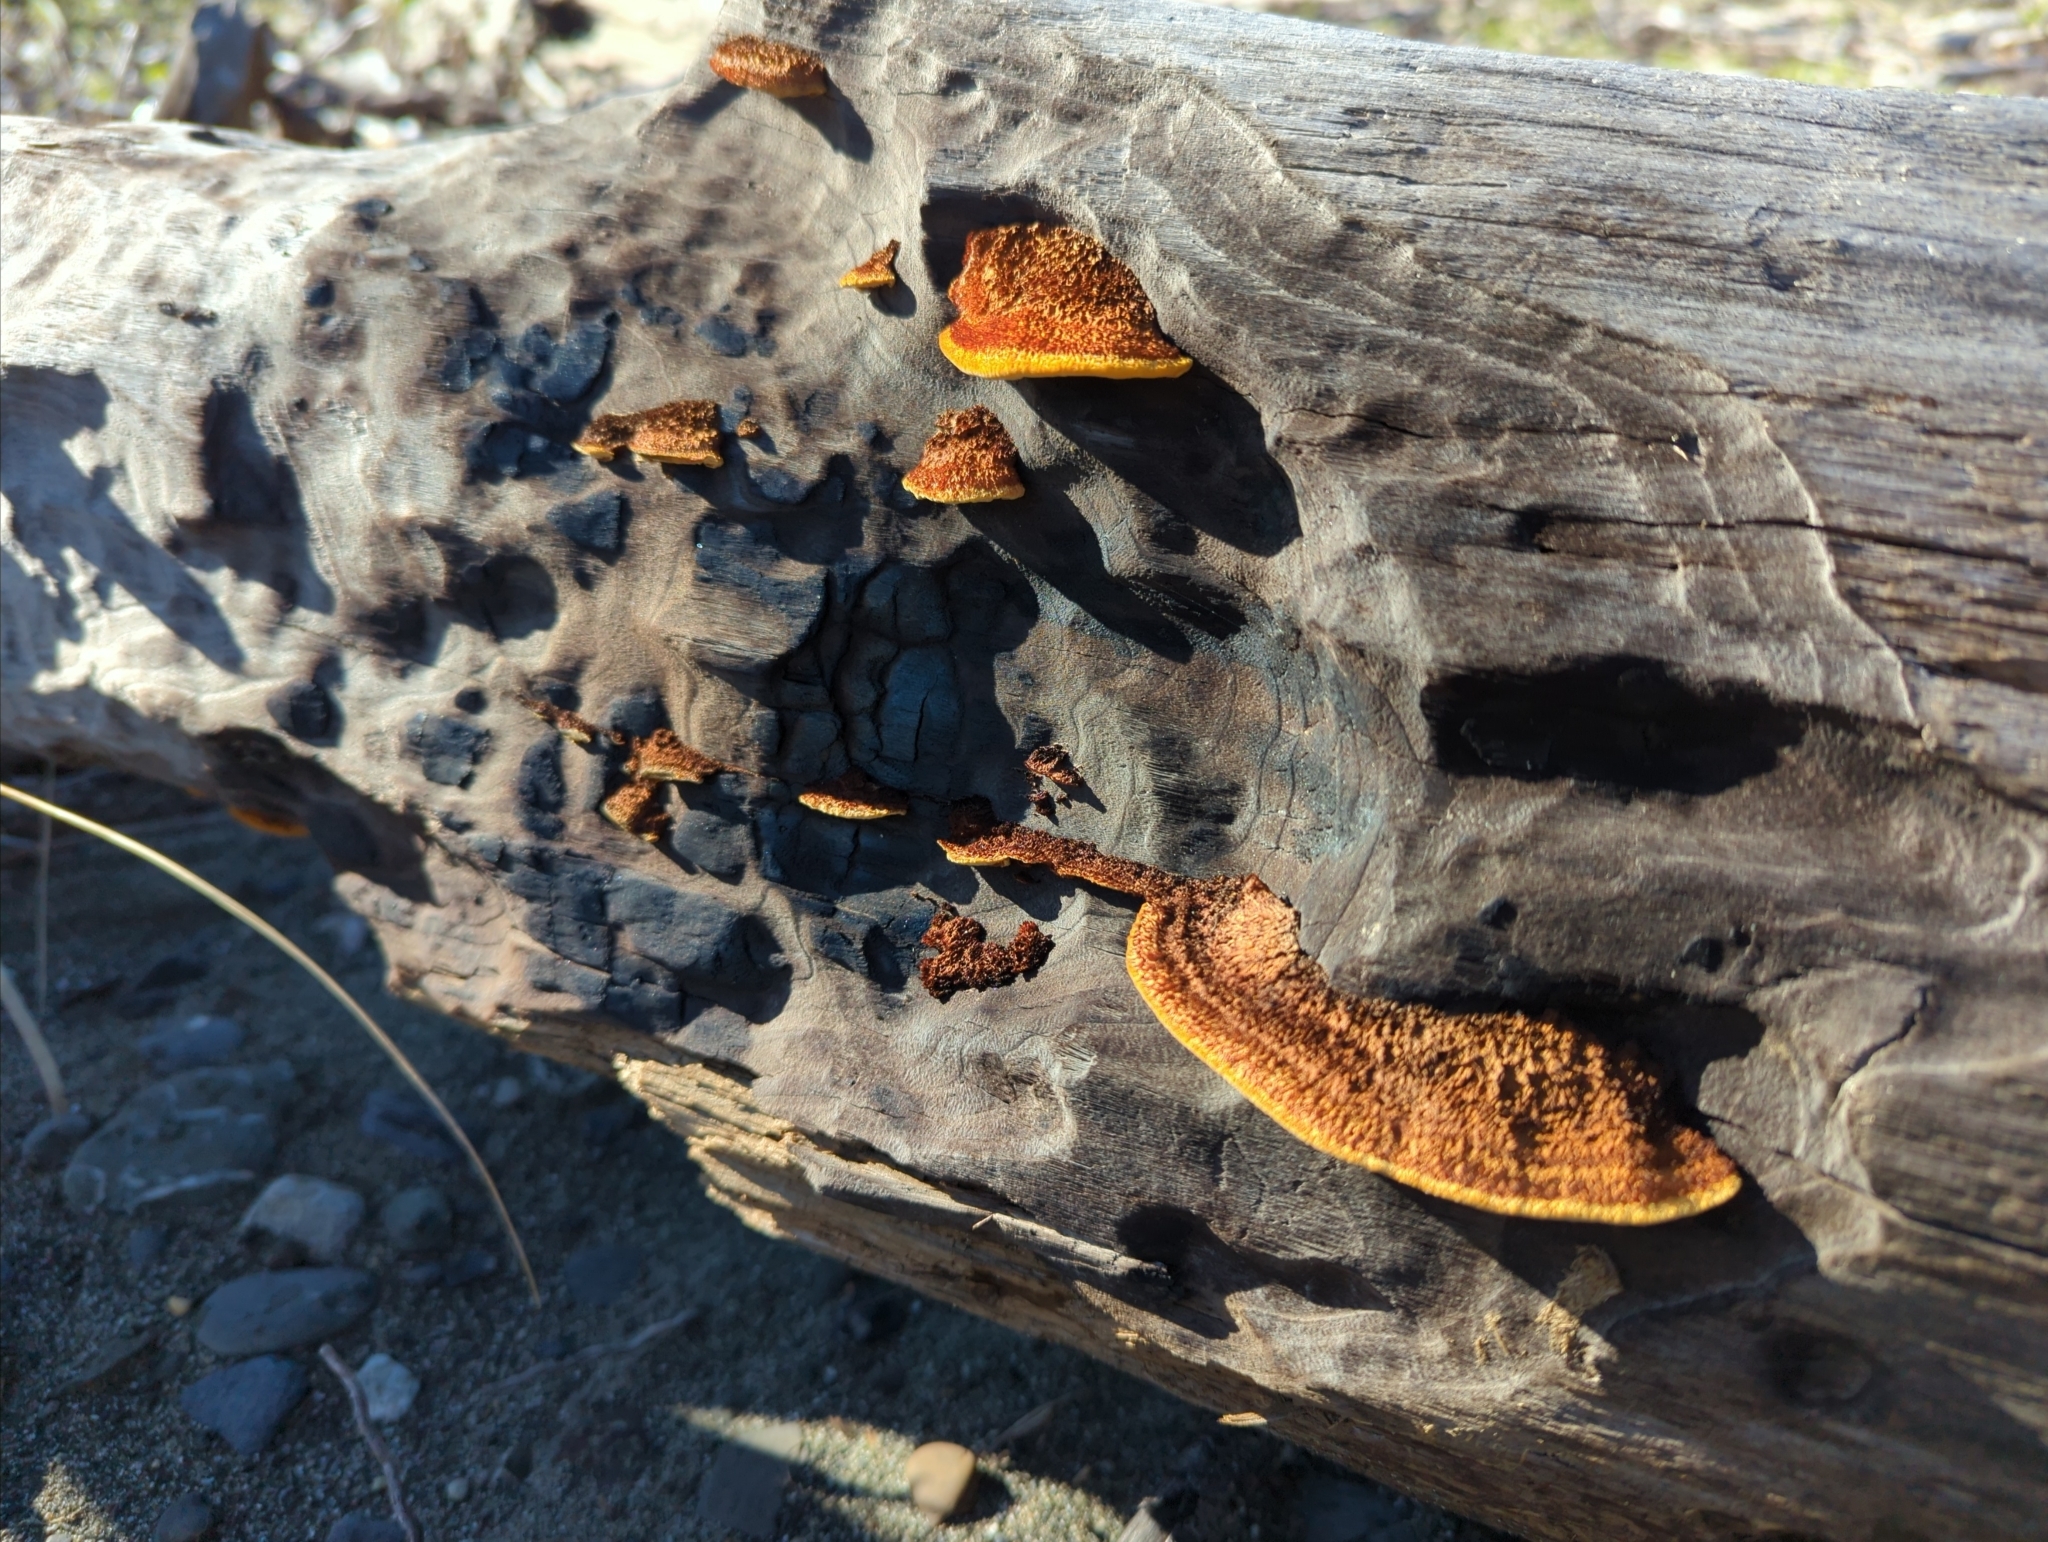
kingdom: Fungi
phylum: Basidiomycota
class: Agaricomycetes
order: Gloeophyllales
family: Gloeophyllaceae
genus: Gloeophyllum
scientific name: Gloeophyllum sepiarium
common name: Conifer mazegill
